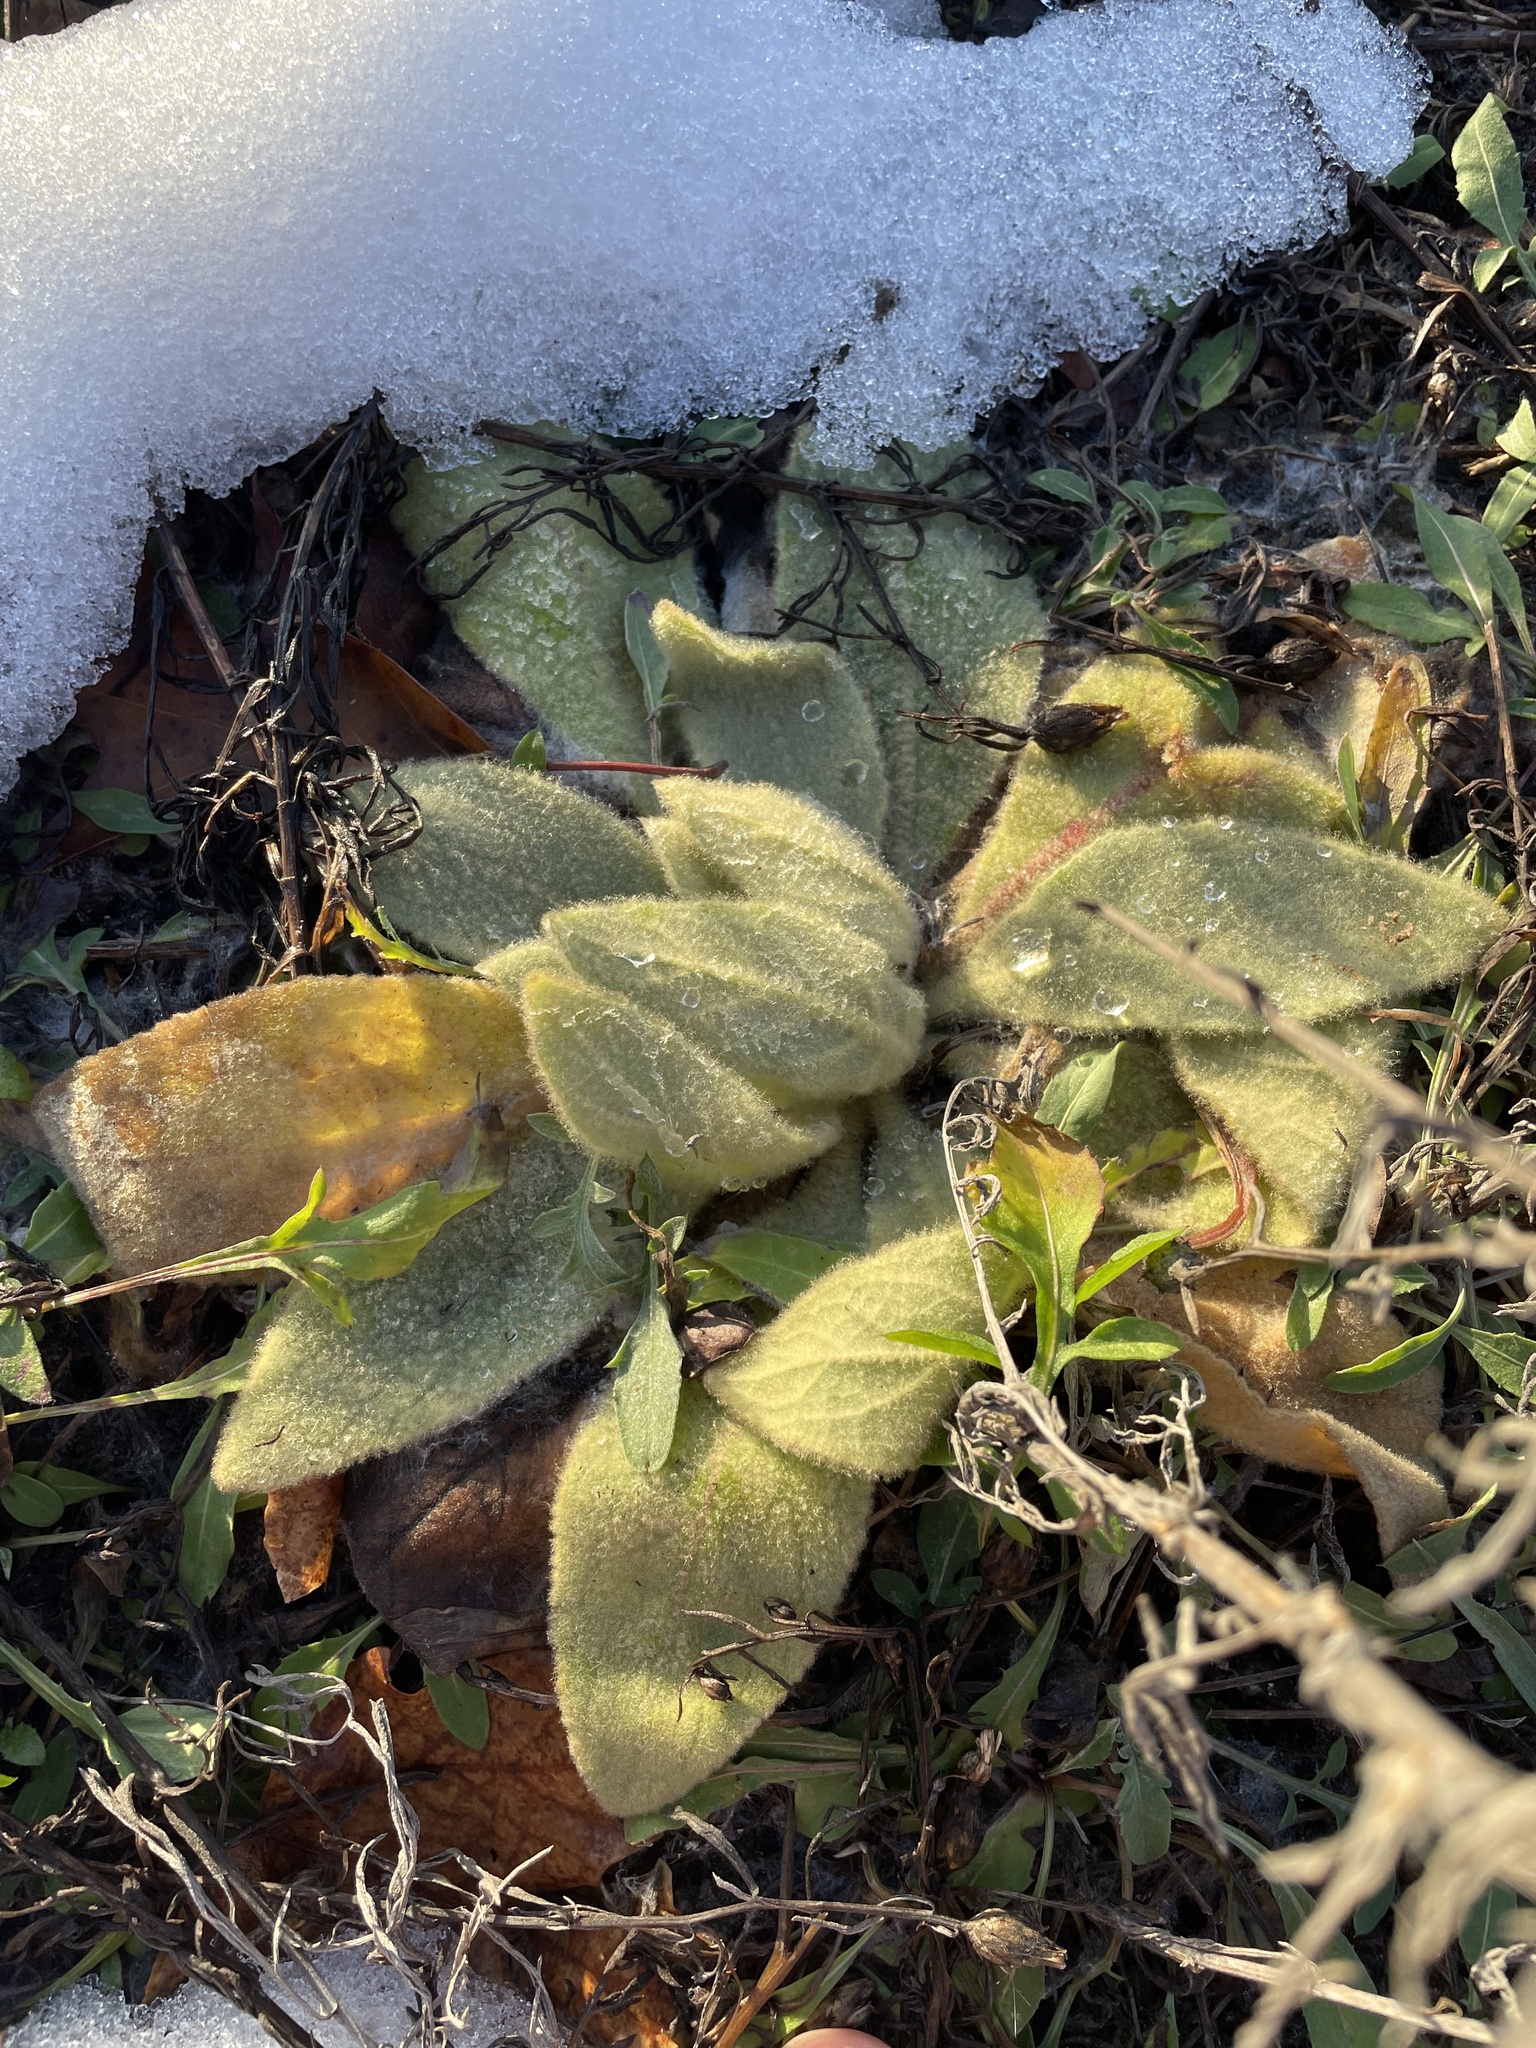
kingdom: Plantae
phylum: Tracheophyta
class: Magnoliopsida
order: Lamiales
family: Scrophulariaceae
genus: Verbascum
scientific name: Verbascum thapsus
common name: Common mullein
